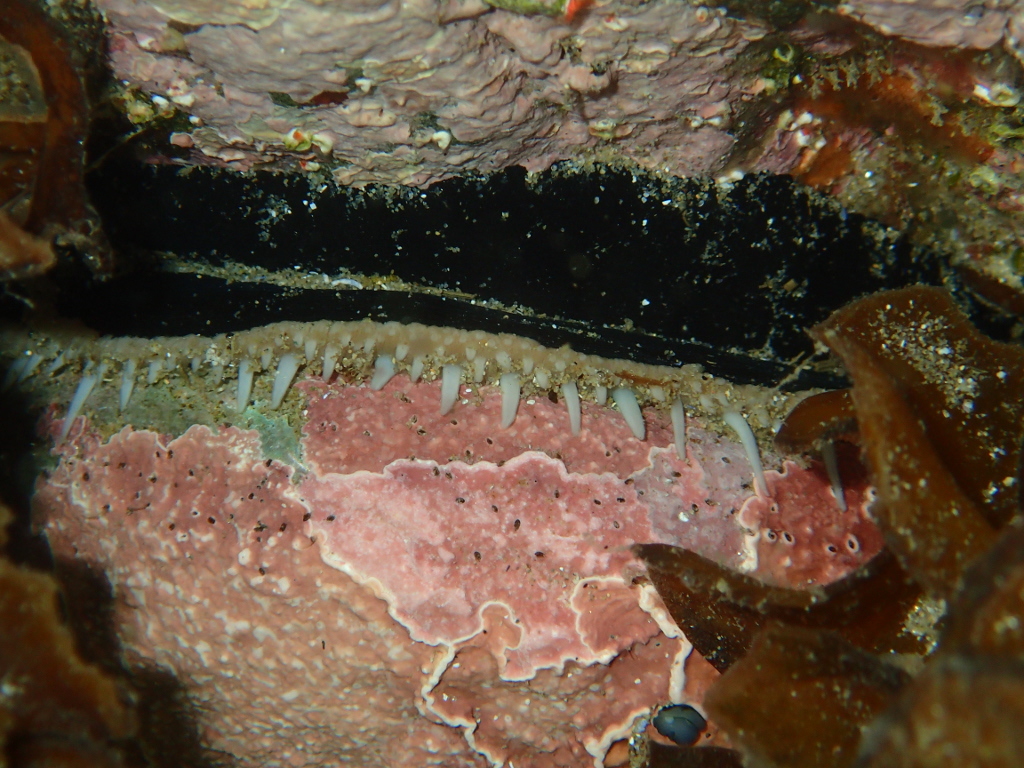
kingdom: Animalia
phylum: Mollusca
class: Gastropoda
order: Lepetellida
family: Haliotidae
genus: Haliotis
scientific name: Haliotis australis
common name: Silver abalone
